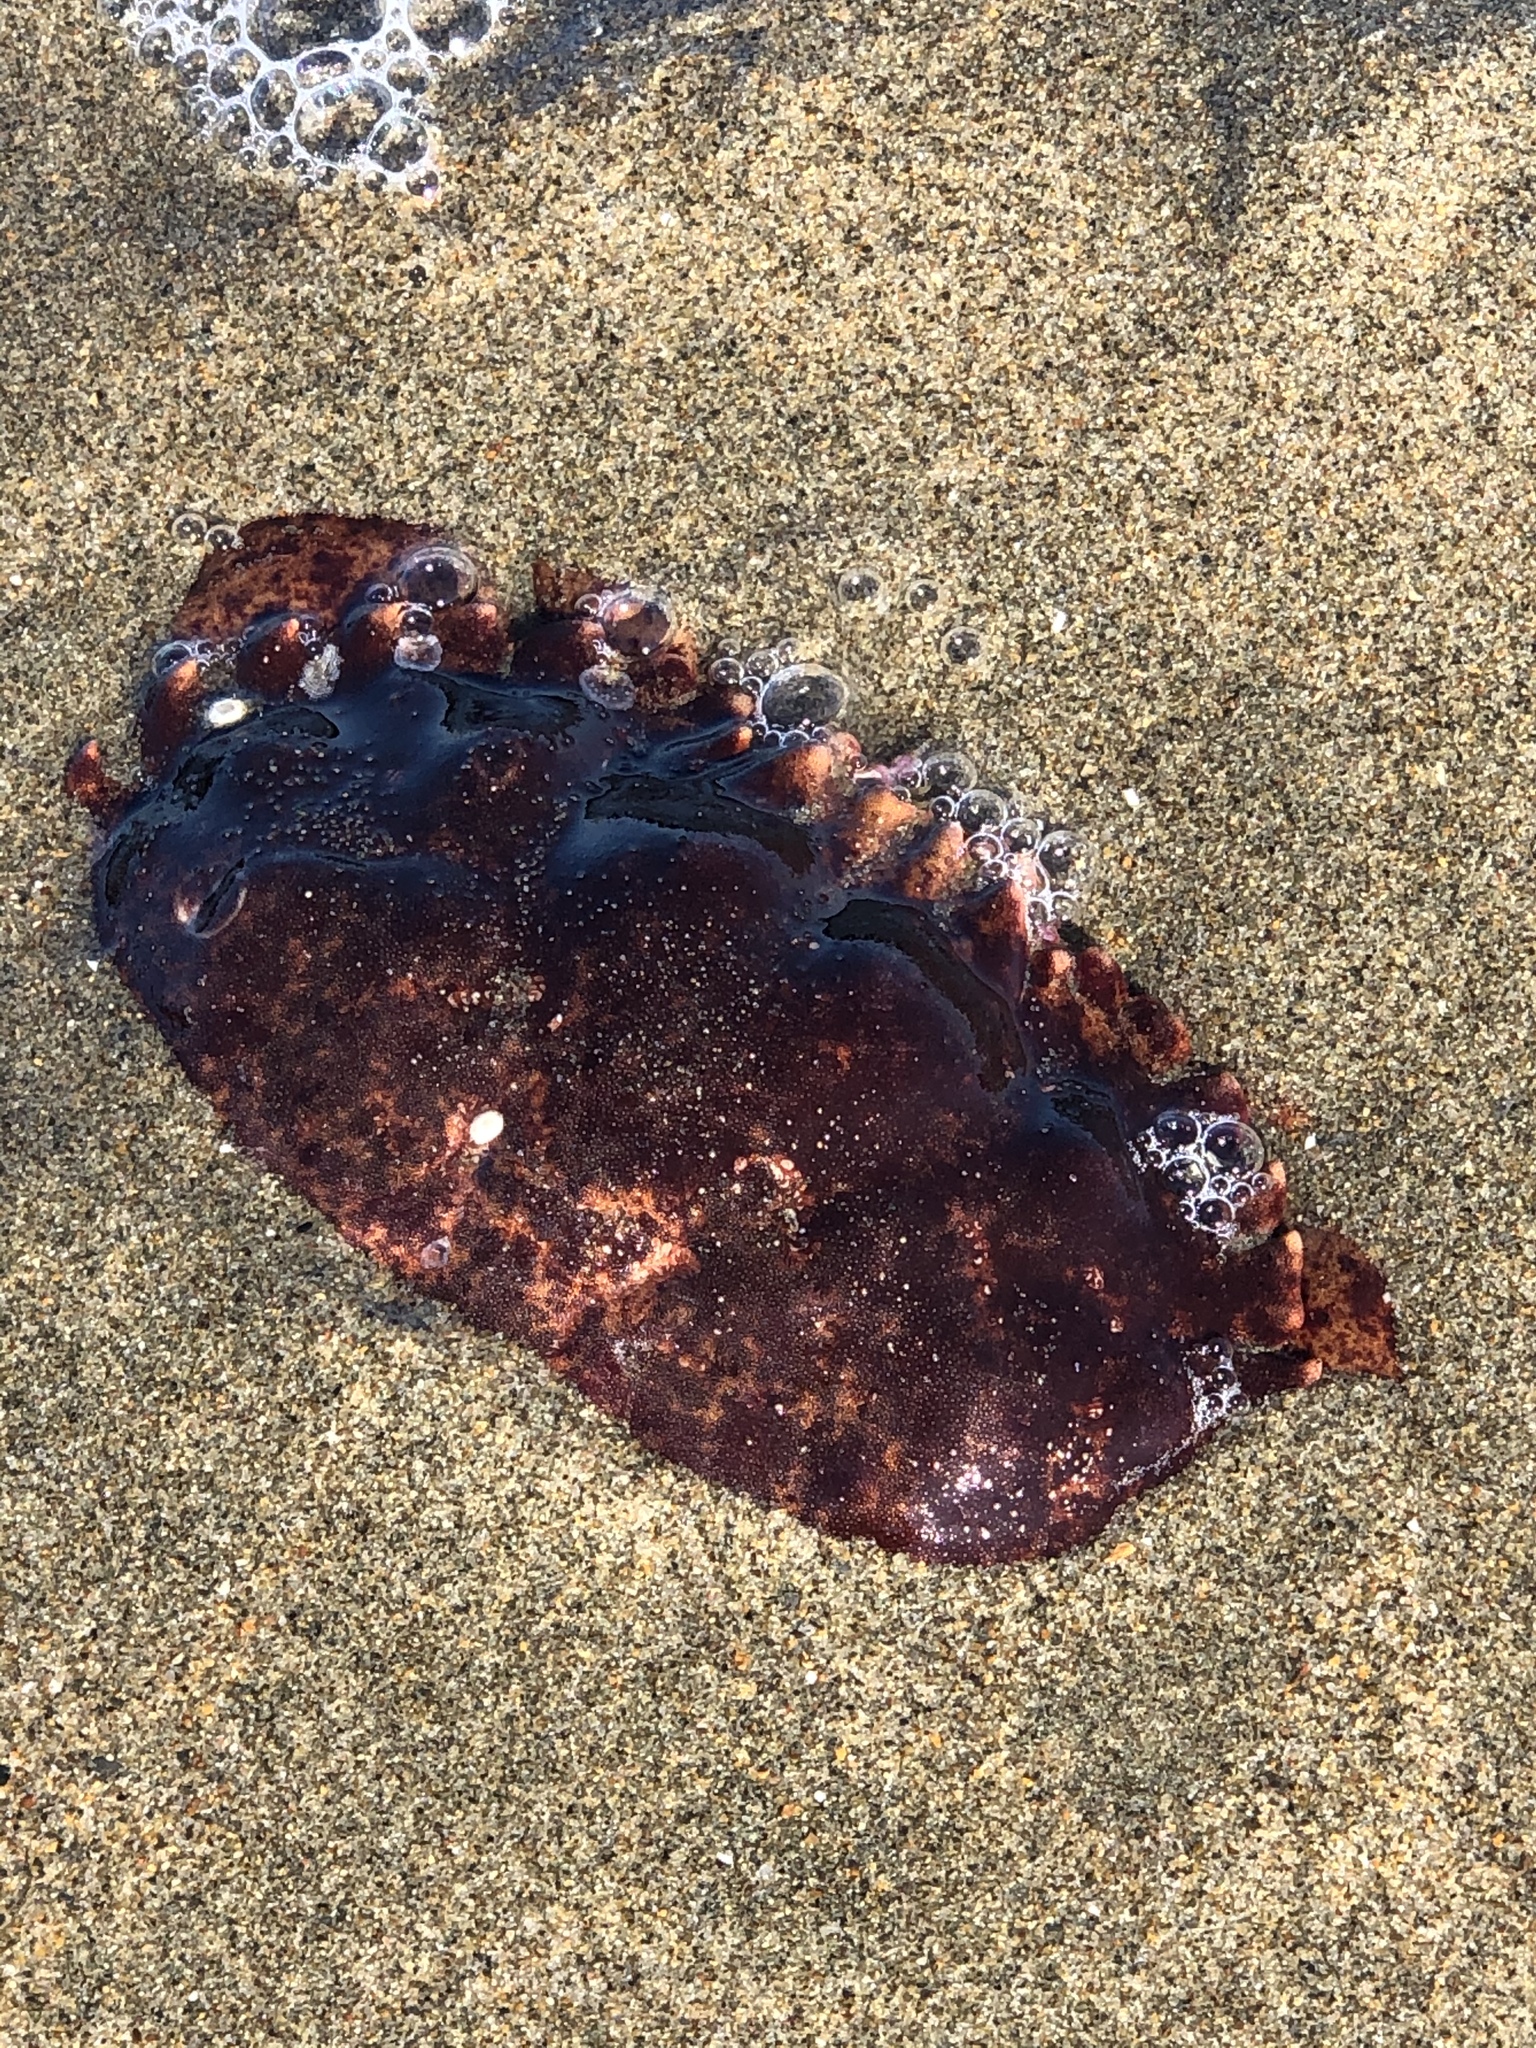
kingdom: Animalia
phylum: Arthropoda
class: Malacostraca
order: Decapoda
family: Cancridae
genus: Romaleon
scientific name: Romaleon antennarium
